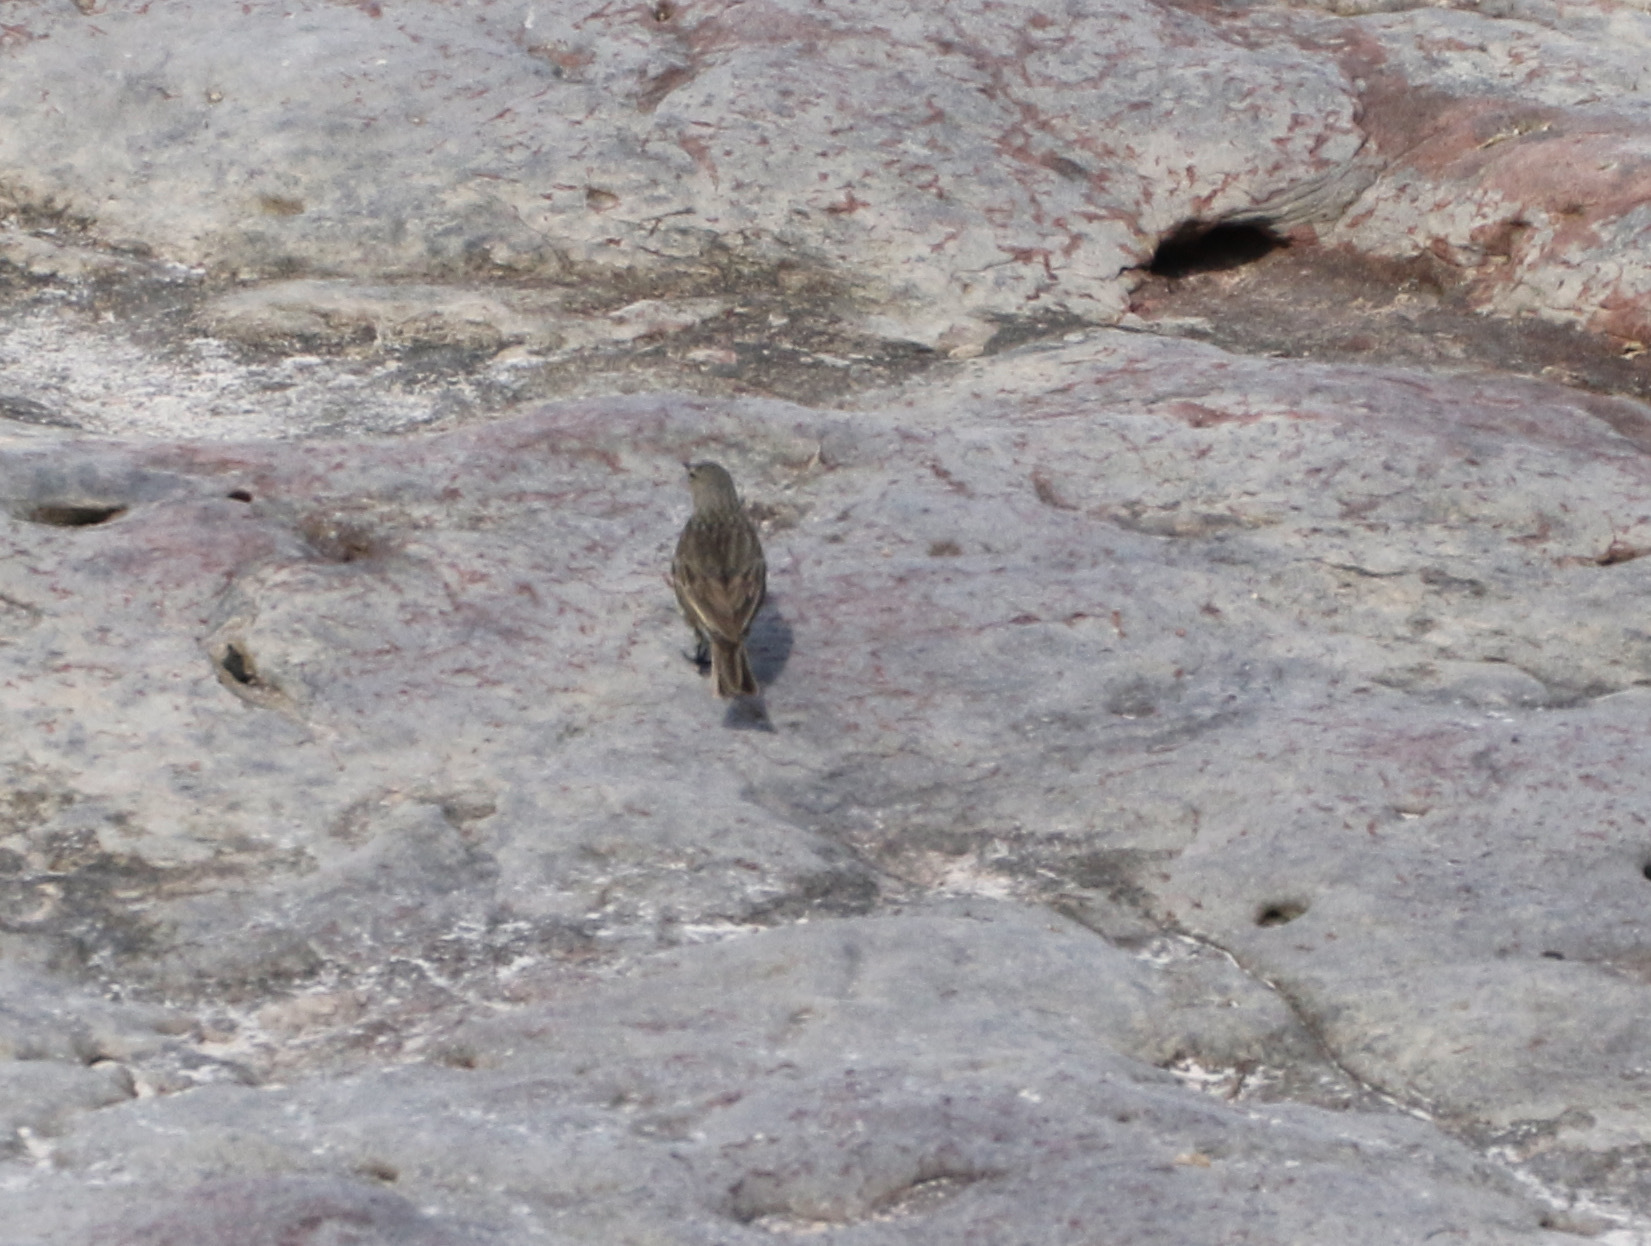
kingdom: Animalia
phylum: Chordata
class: Aves
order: Passeriformes
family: Motacillidae
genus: Anthus
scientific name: Anthus petrosus
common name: Eurasian rock pipit
